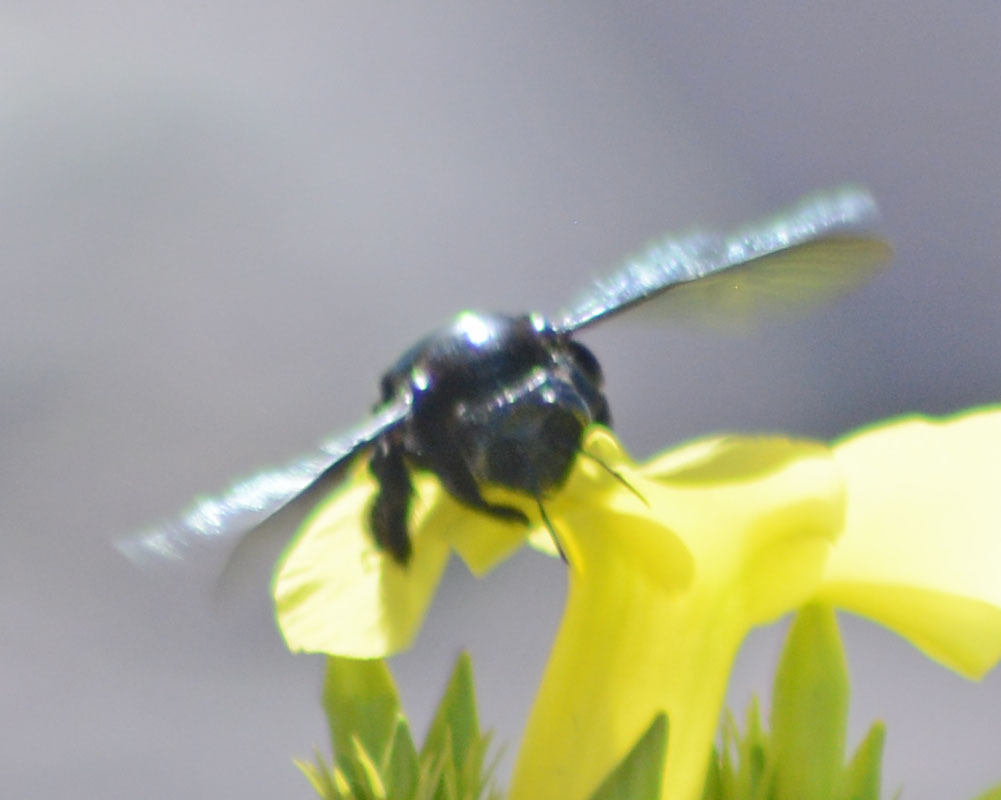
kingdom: Animalia
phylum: Arthropoda
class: Insecta
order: Hymenoptera
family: Apidae
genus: Xylocopa
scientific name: Xylocopa fimbriata
